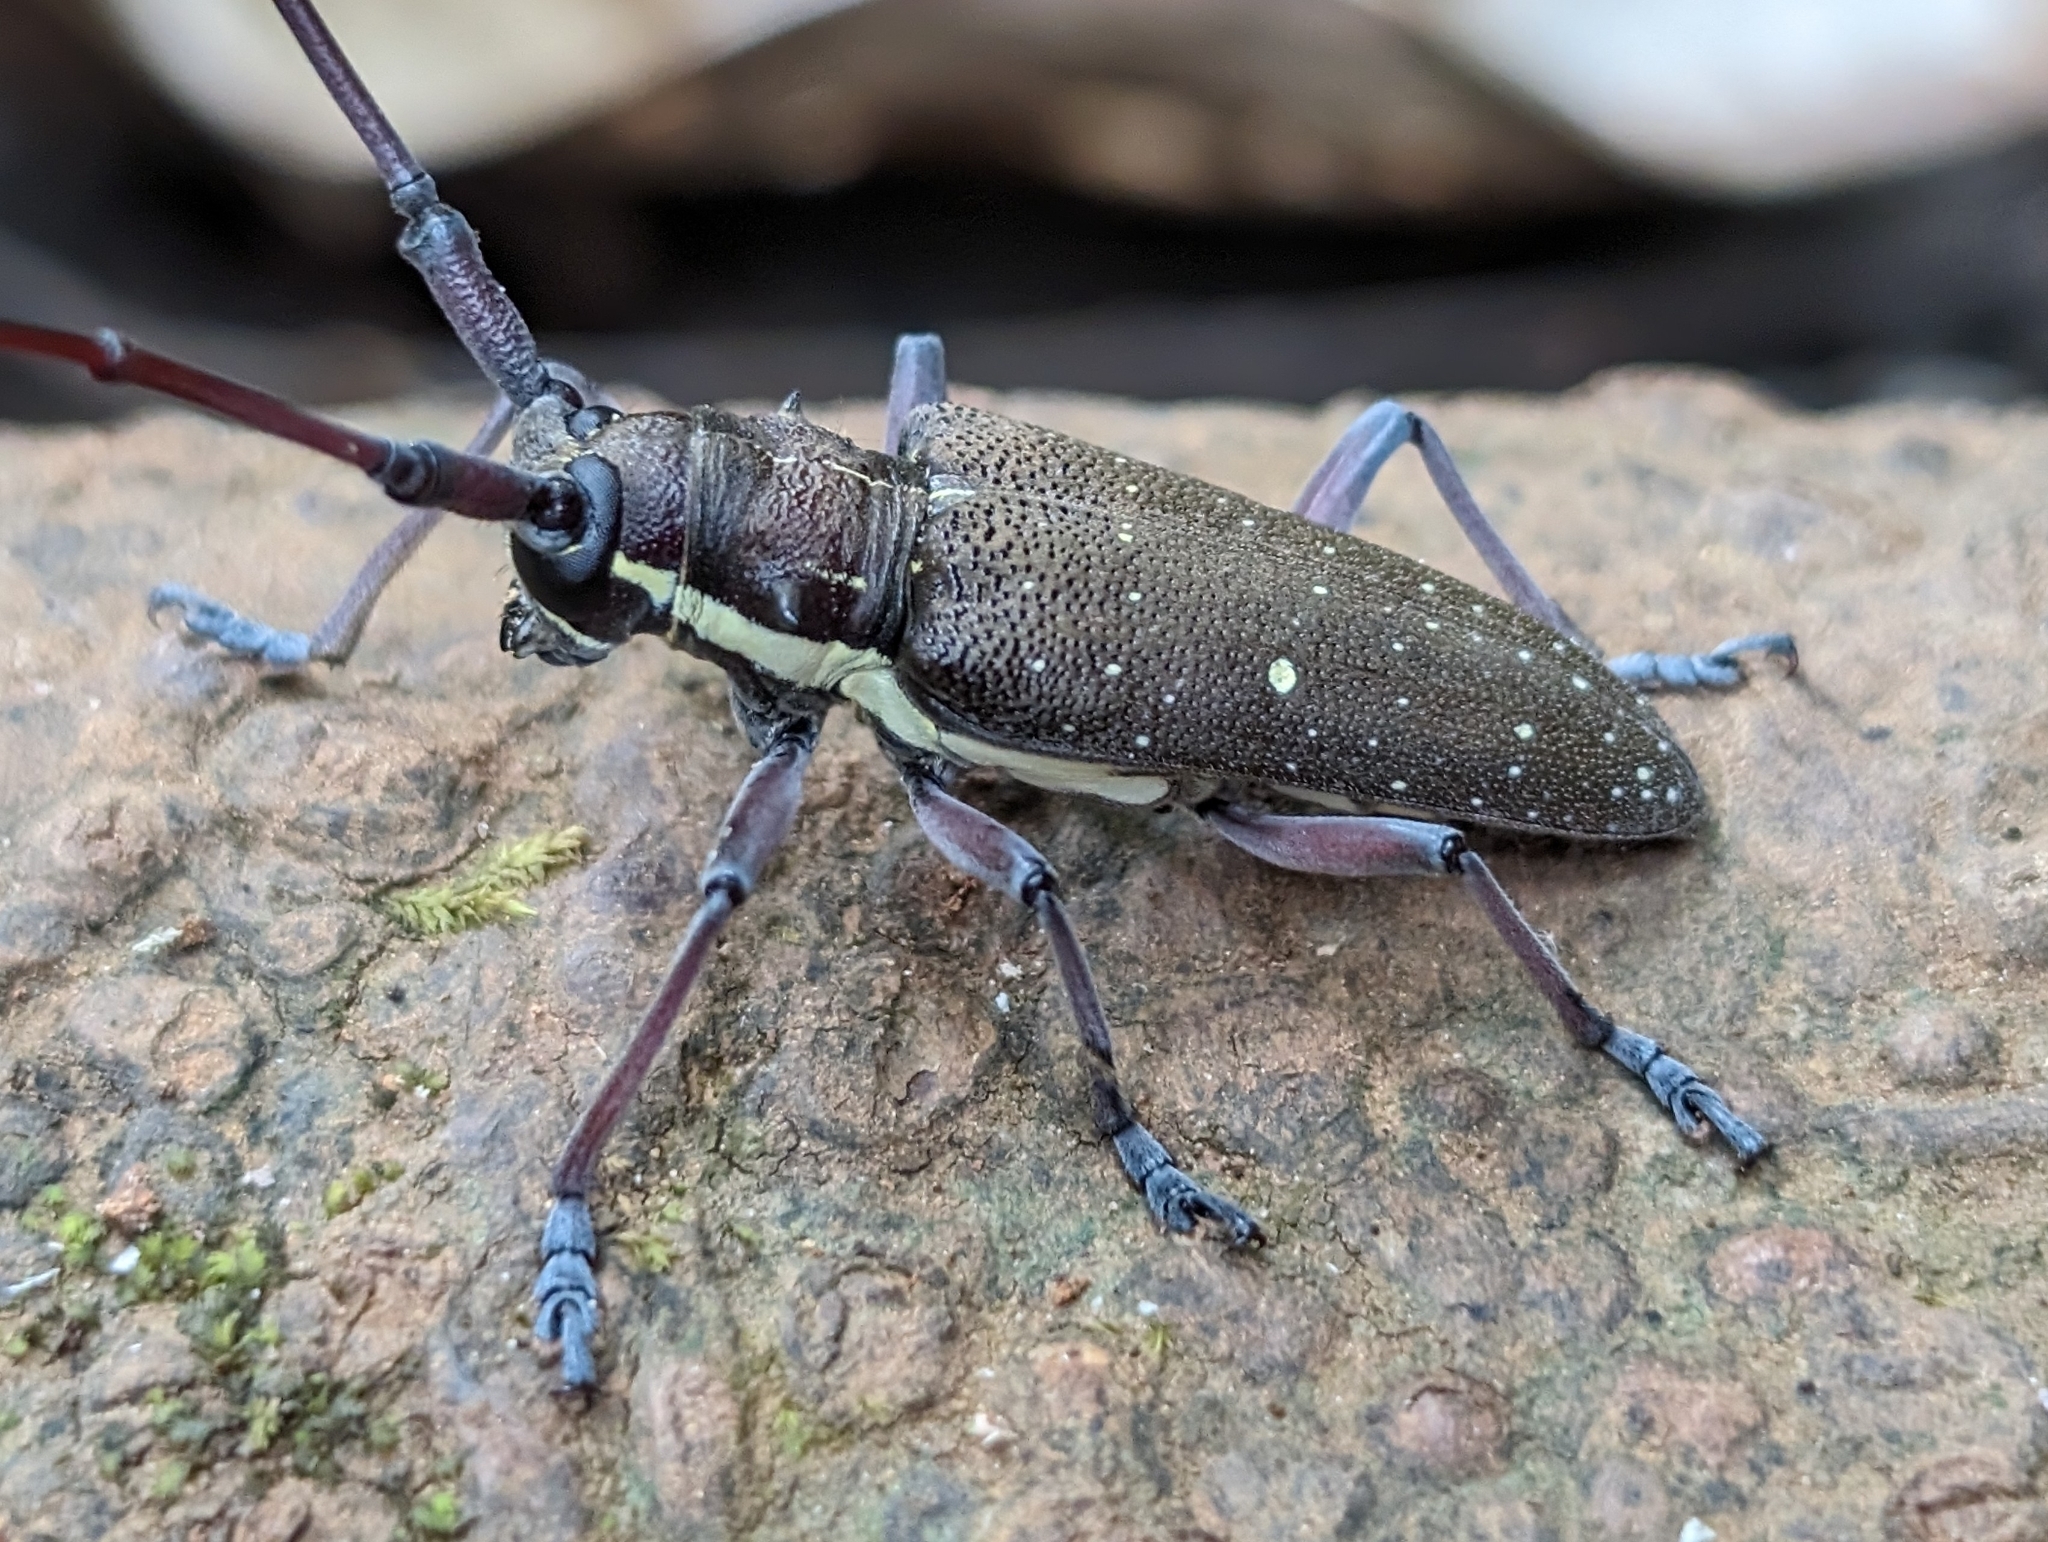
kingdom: Animalia
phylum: Arthropoda
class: Insecta
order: Coleoptera
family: Cerambycidae
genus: Taeniotes
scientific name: Taeniotes xanthostictus
